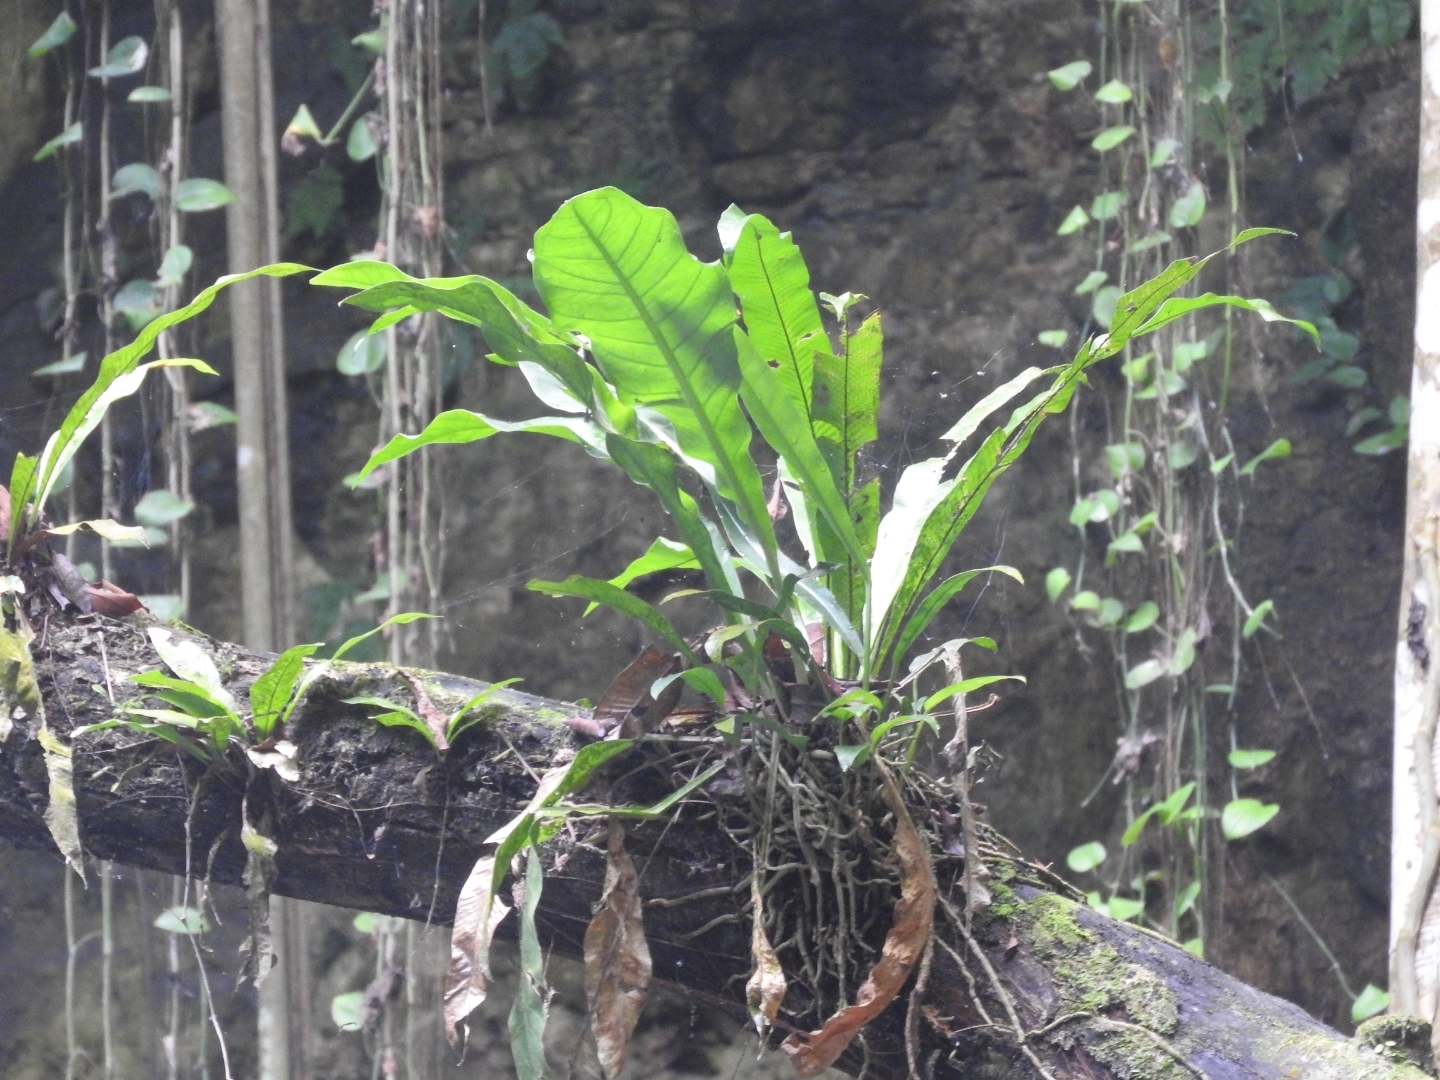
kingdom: Plantae
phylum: Tracheophyta
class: Liliopsida
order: Alismatales
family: Araceae
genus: Anthurium
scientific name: Anthurium schlechtendalii
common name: Laceleaf
